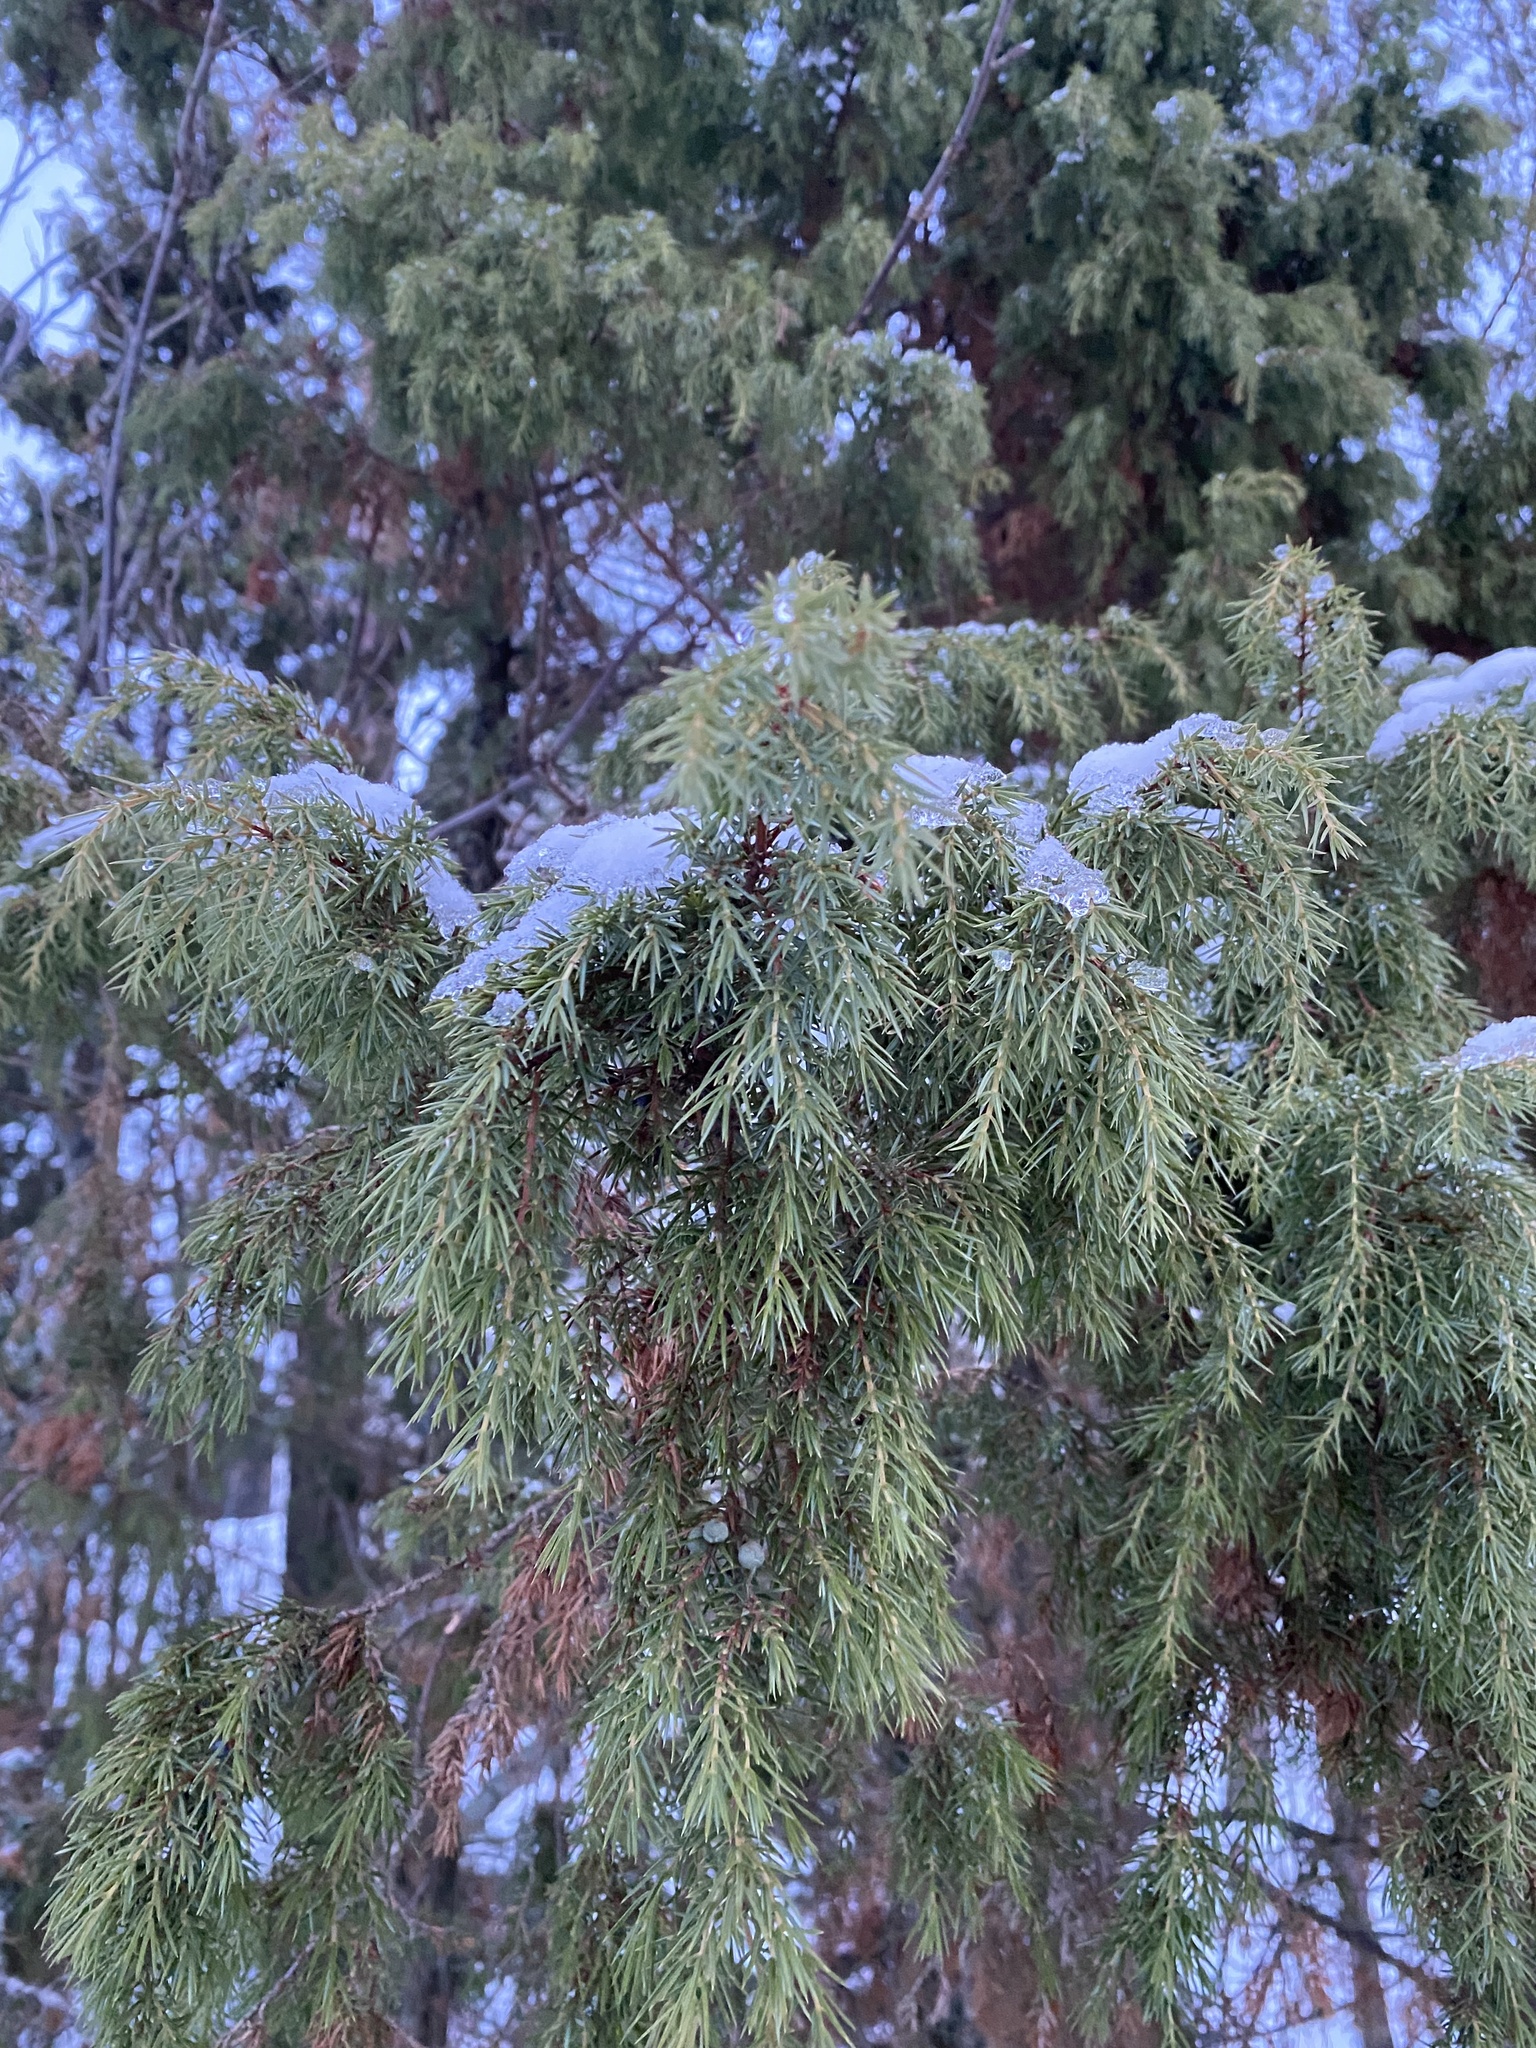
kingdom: Plantae
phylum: Tracheophyta
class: Pinopsida
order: Pinales
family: Cupressaceae
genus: Juniperus
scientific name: Juniperus communis
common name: Common juniper
